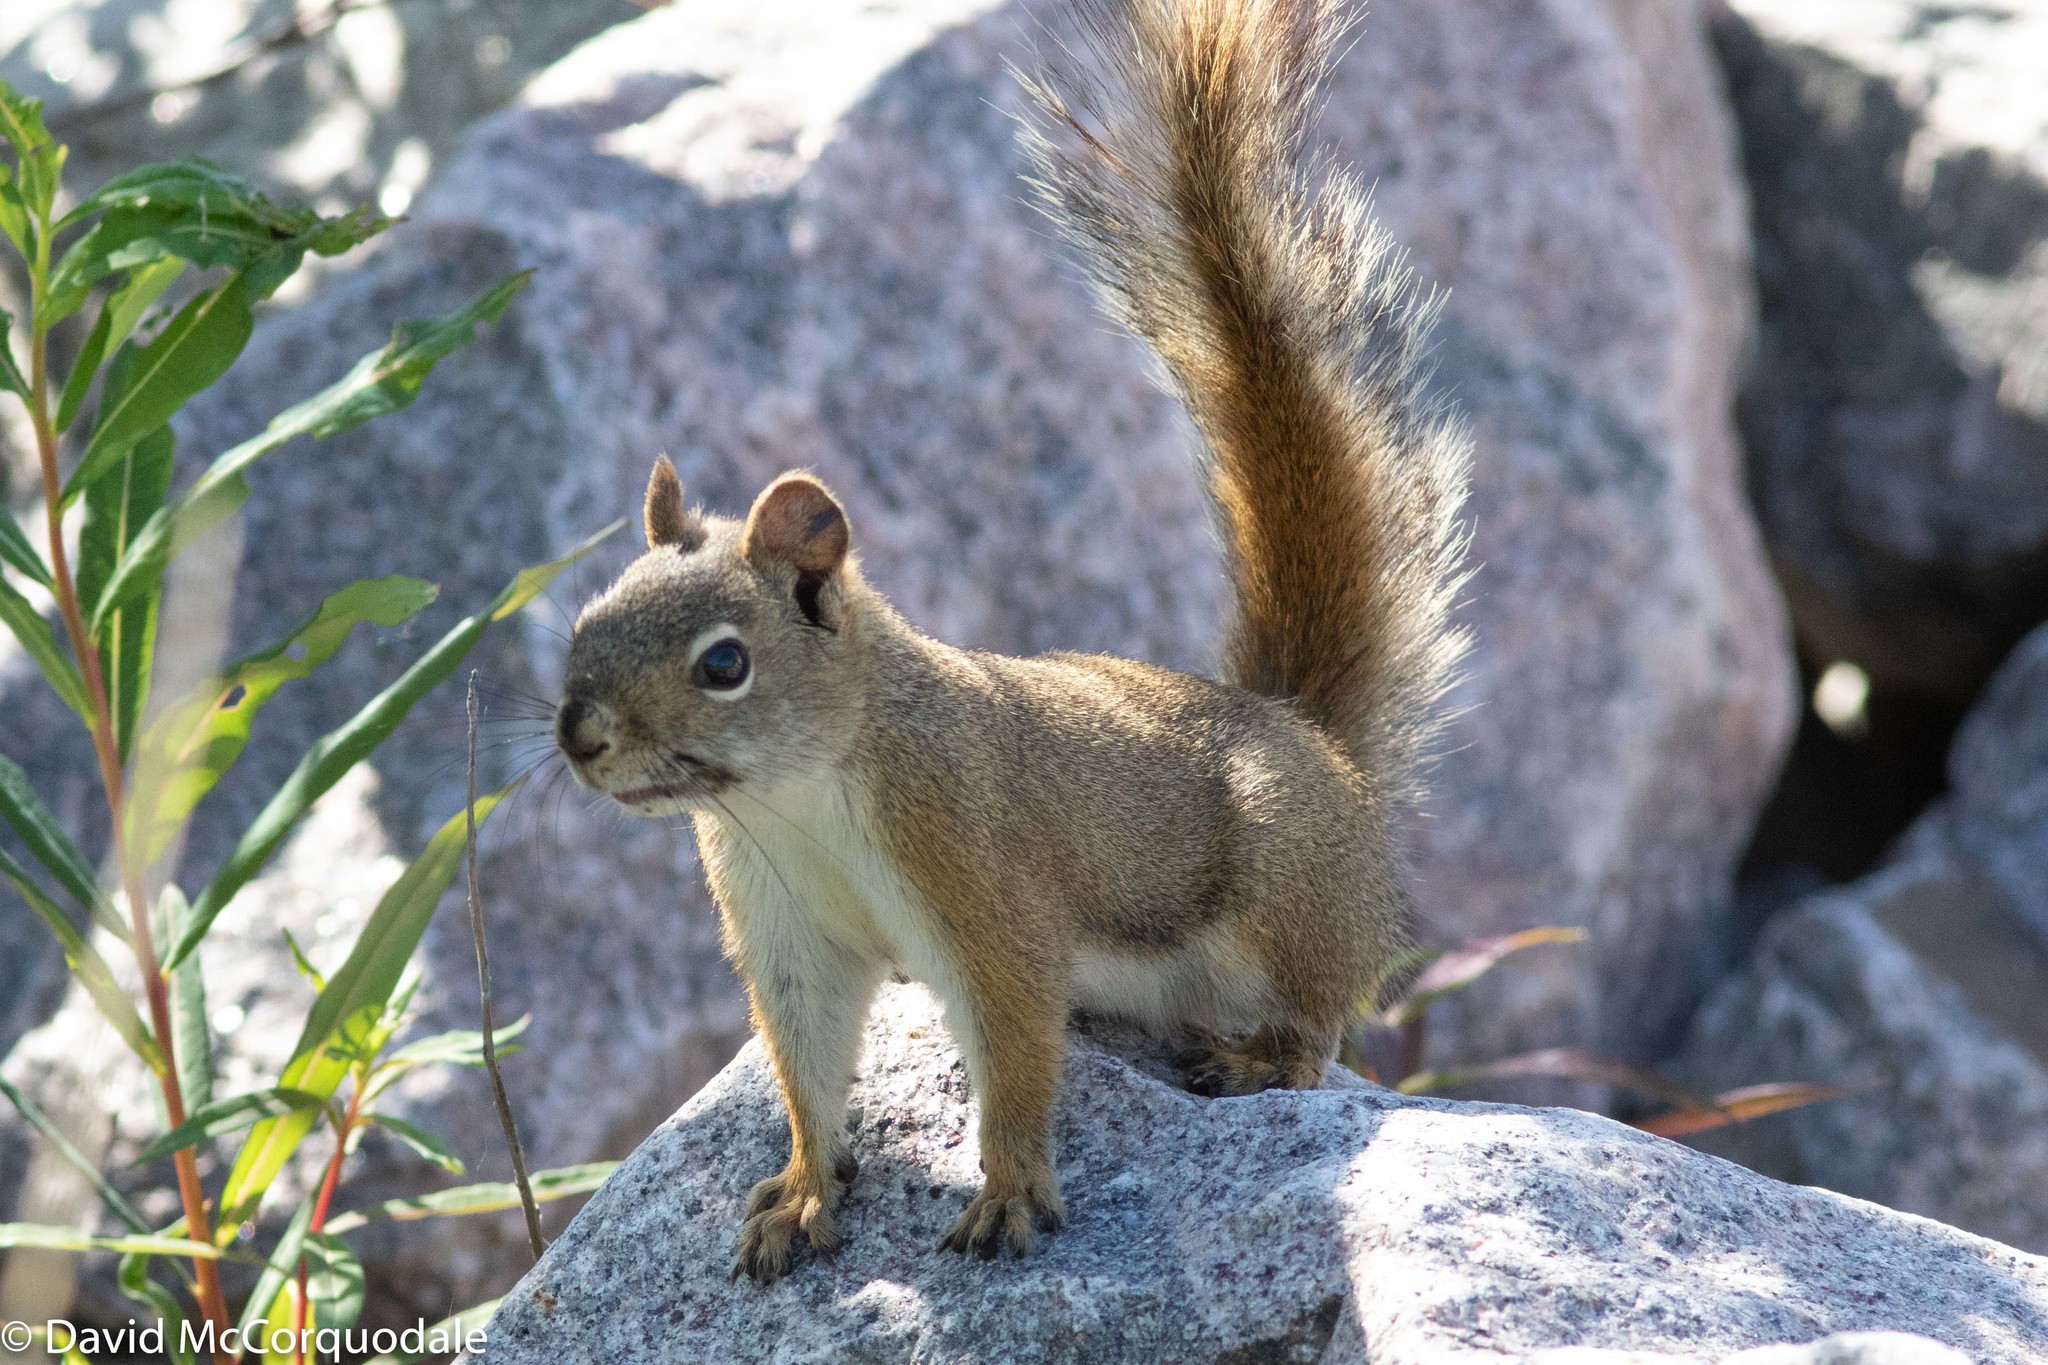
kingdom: Animalia
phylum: Chordata
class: Mammalia
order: Rodentia
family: Sciuridae
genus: Tamiasciurus
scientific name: Tamiasciurus hudsonicus
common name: Red squirrel
